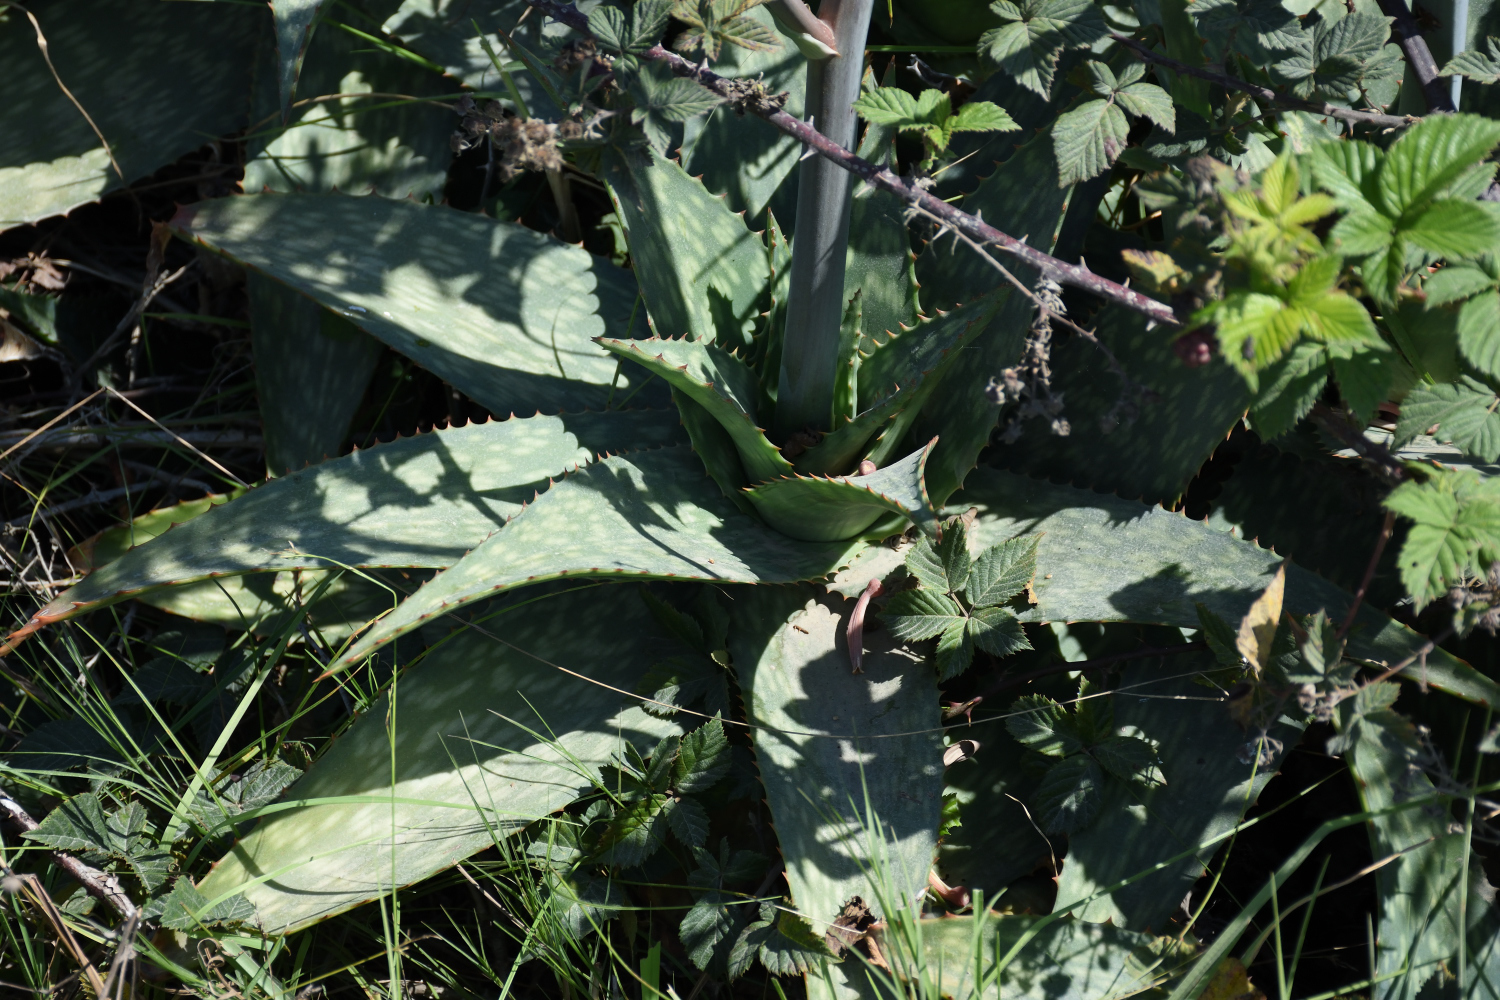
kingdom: Plantae
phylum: Tracheophyta
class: Liliopsida
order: Asparagales
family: Asphodelaceae
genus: Aloe
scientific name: Aloe maculata
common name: Broadleaf aloe
